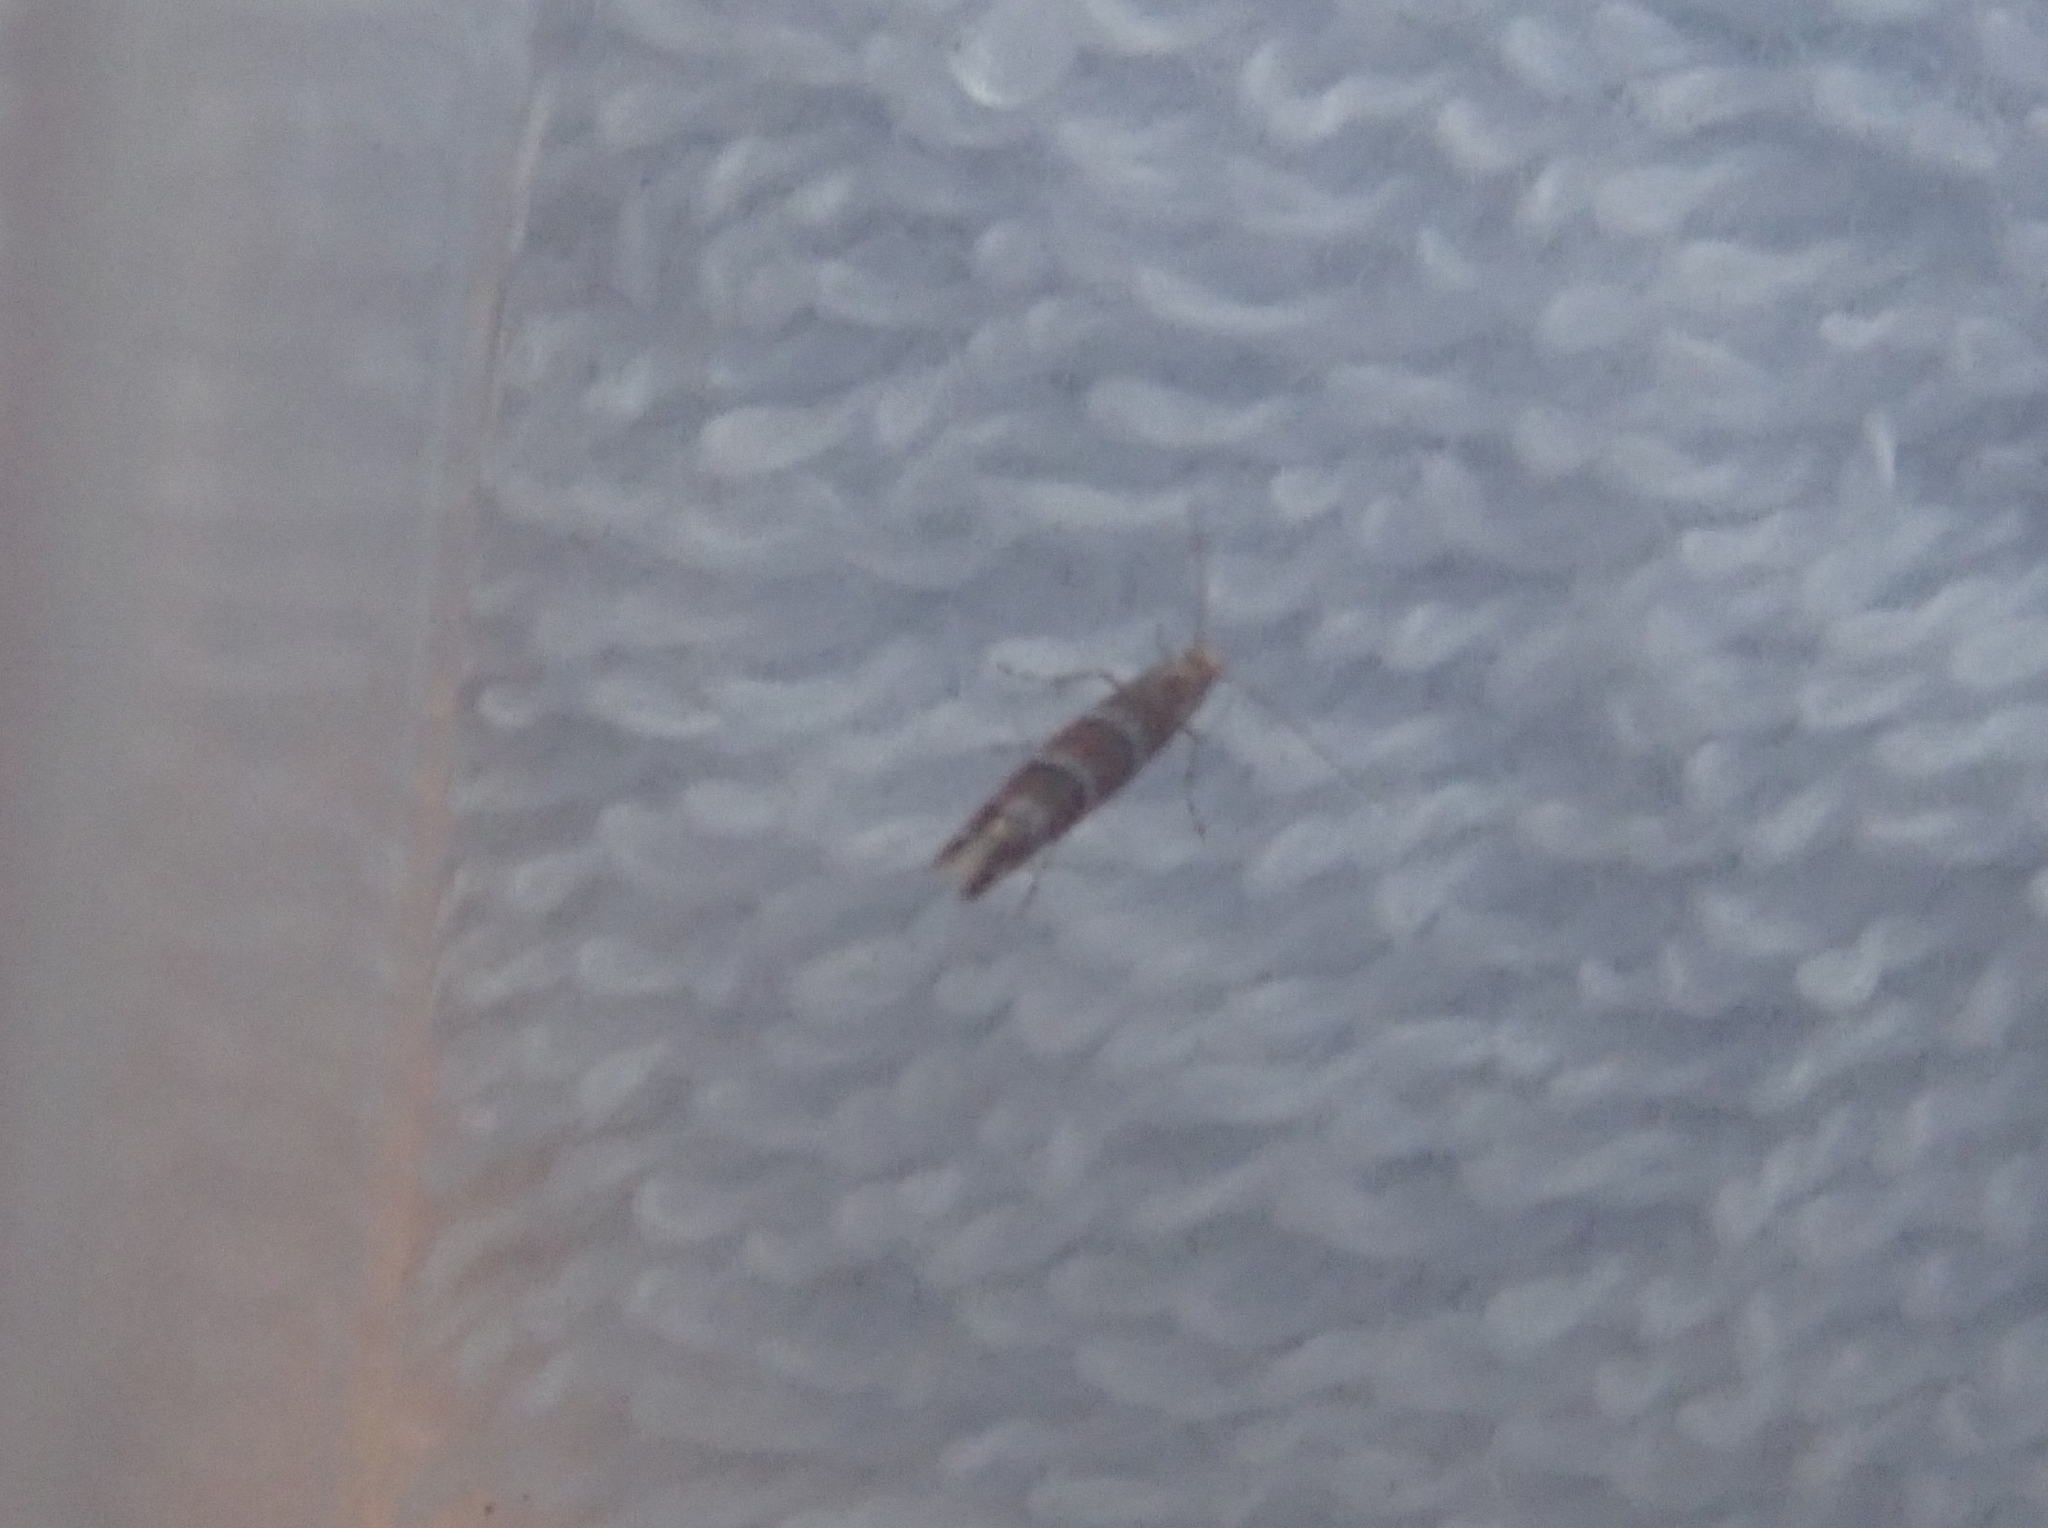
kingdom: Animalia
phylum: Arthropoda
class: Insecta
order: Lepidoptera
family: Gracillariidae
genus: Cameraria
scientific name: Cameraria ohridella
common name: Horse-chestnut leaf-miner
